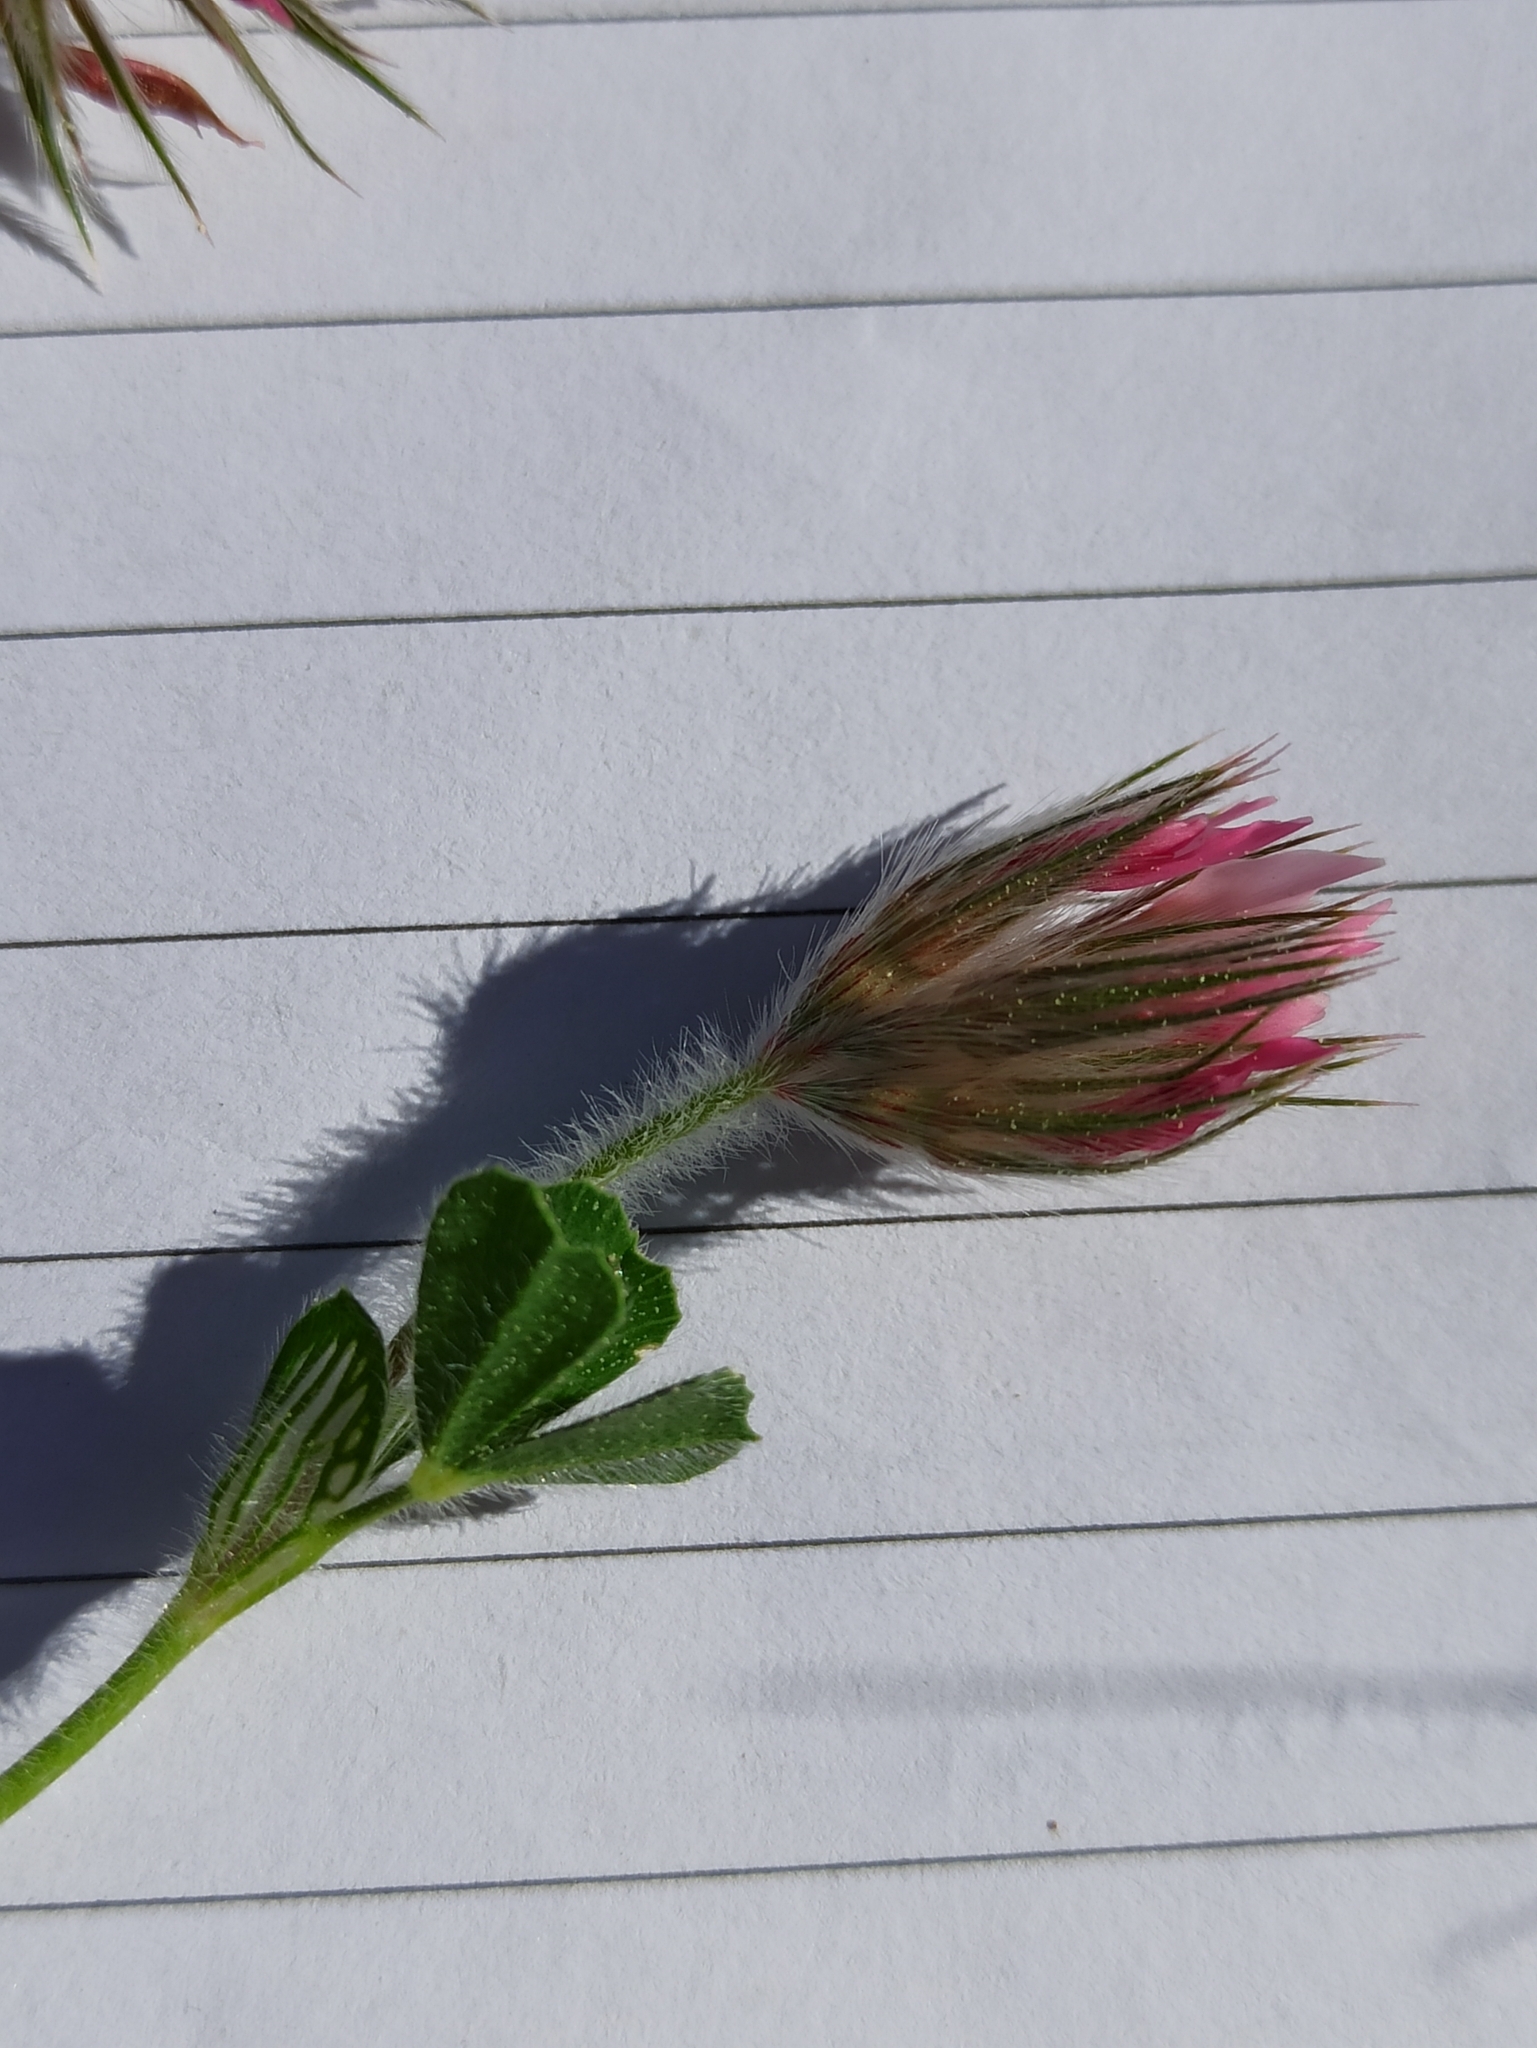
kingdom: Plantae
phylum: Tracheophyta
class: Magnoliopsida
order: Fabales
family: Fabaceae
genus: Trifolium
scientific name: Trifolium stellatum
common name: Starry clover
